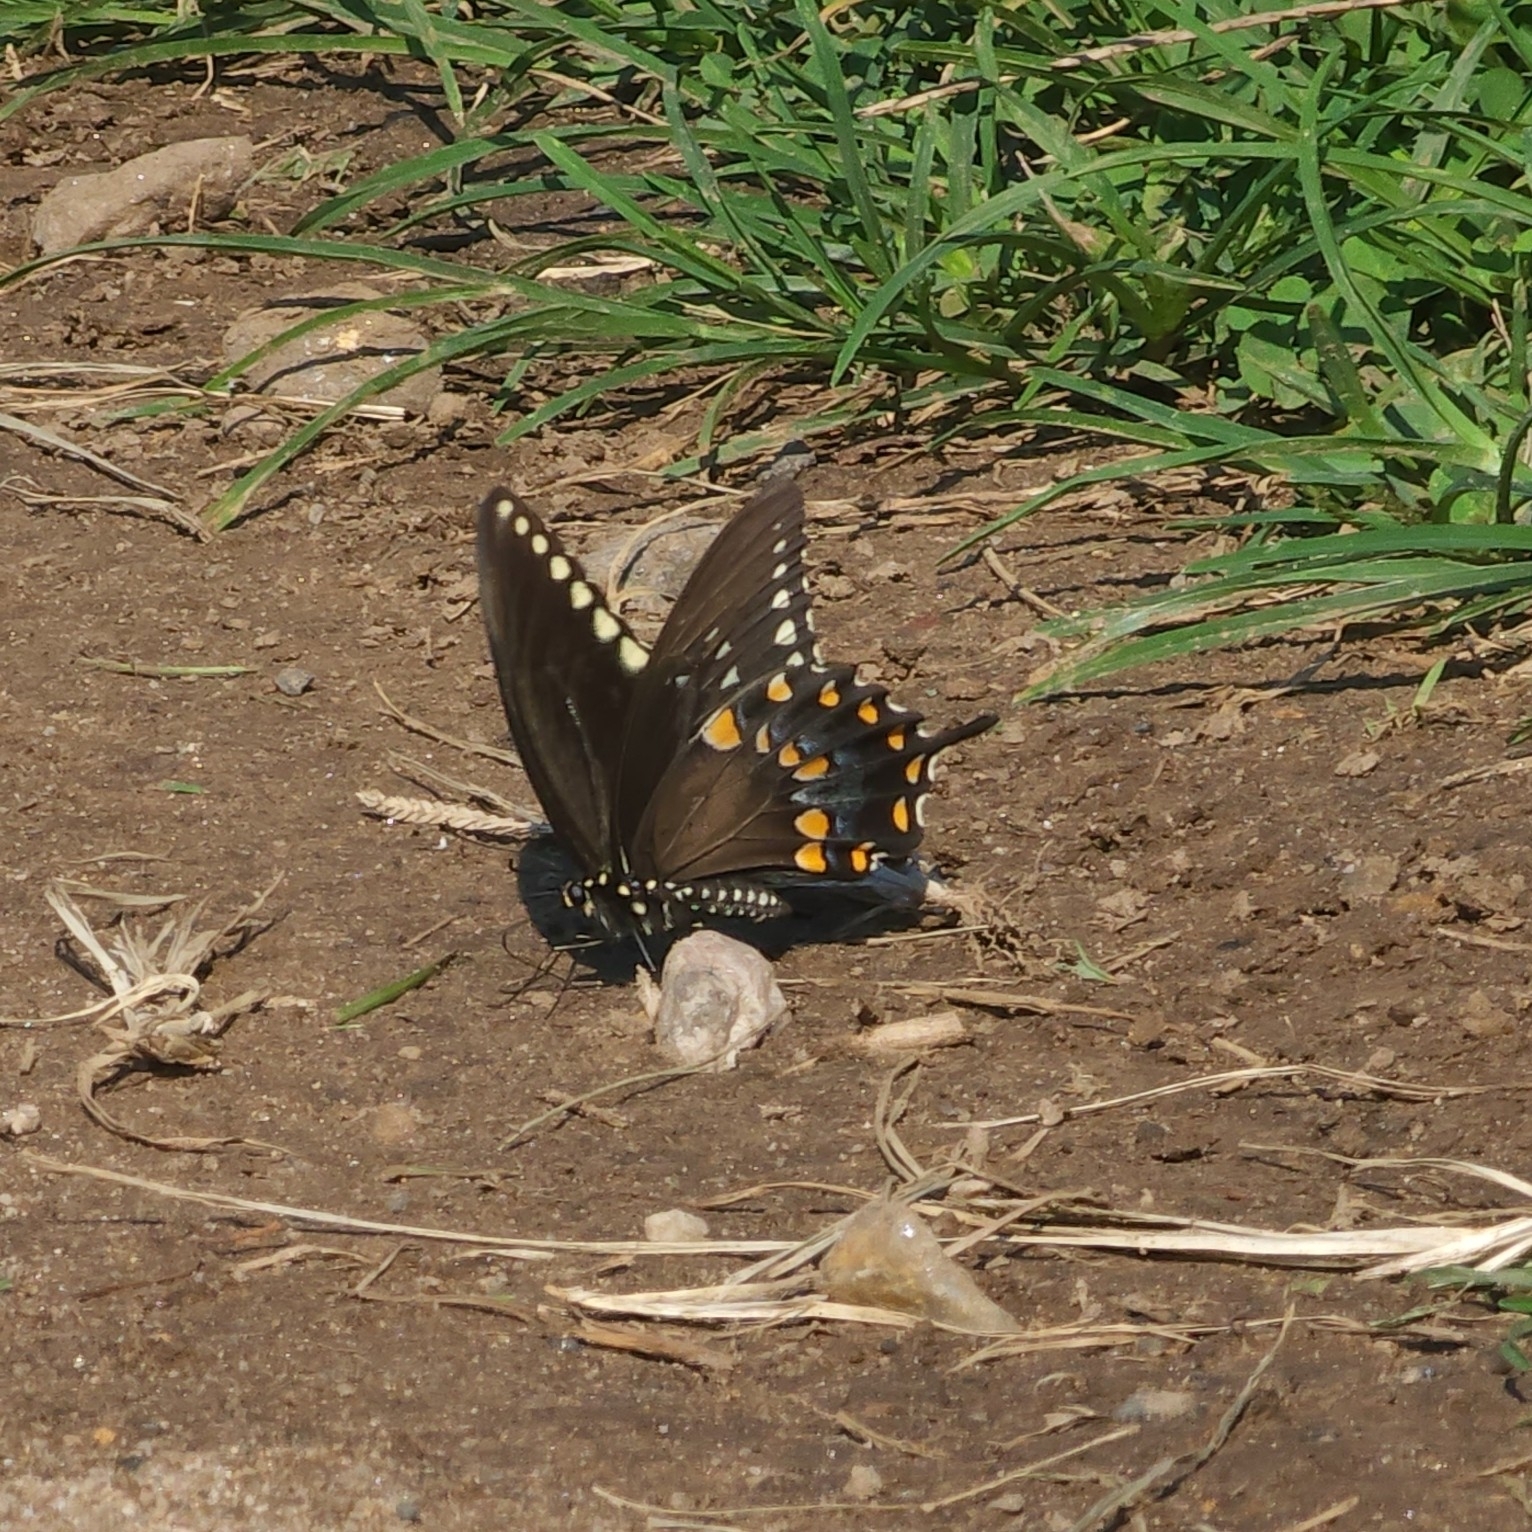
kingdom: Animalia
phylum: Arthropoda
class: Insecta
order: Lepidoptera
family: Papilionidae
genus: Papilio
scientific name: Papilio troilus
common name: Spicebush swallowtail
